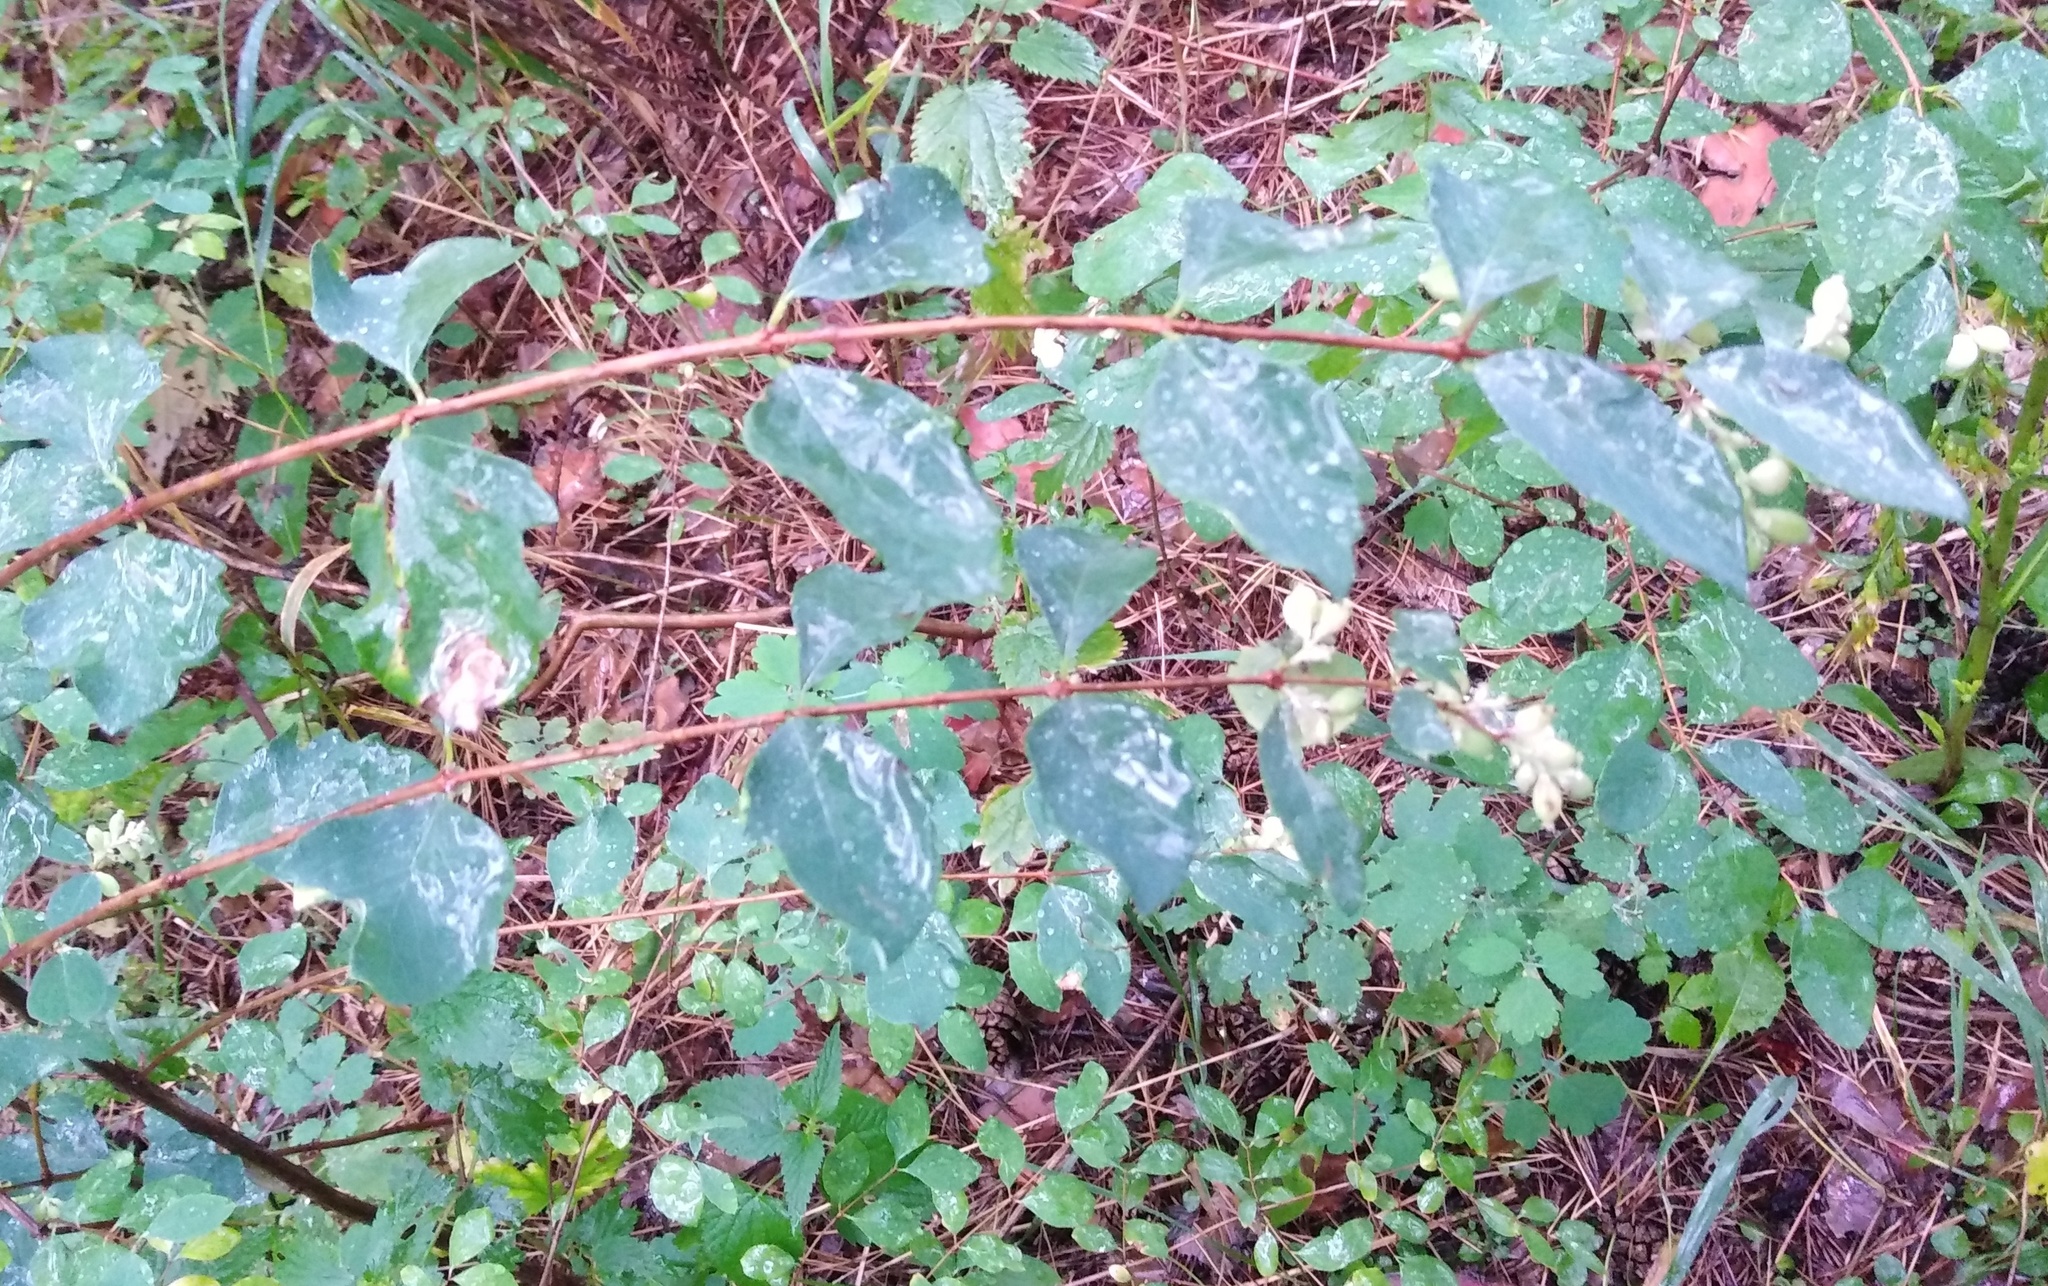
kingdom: Plantae
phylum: Tracheophyta
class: Magnoliopsida
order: Dipsacales
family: Caprifoliaceae
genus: Symphoricarpos
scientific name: Symphoricarpos albus
